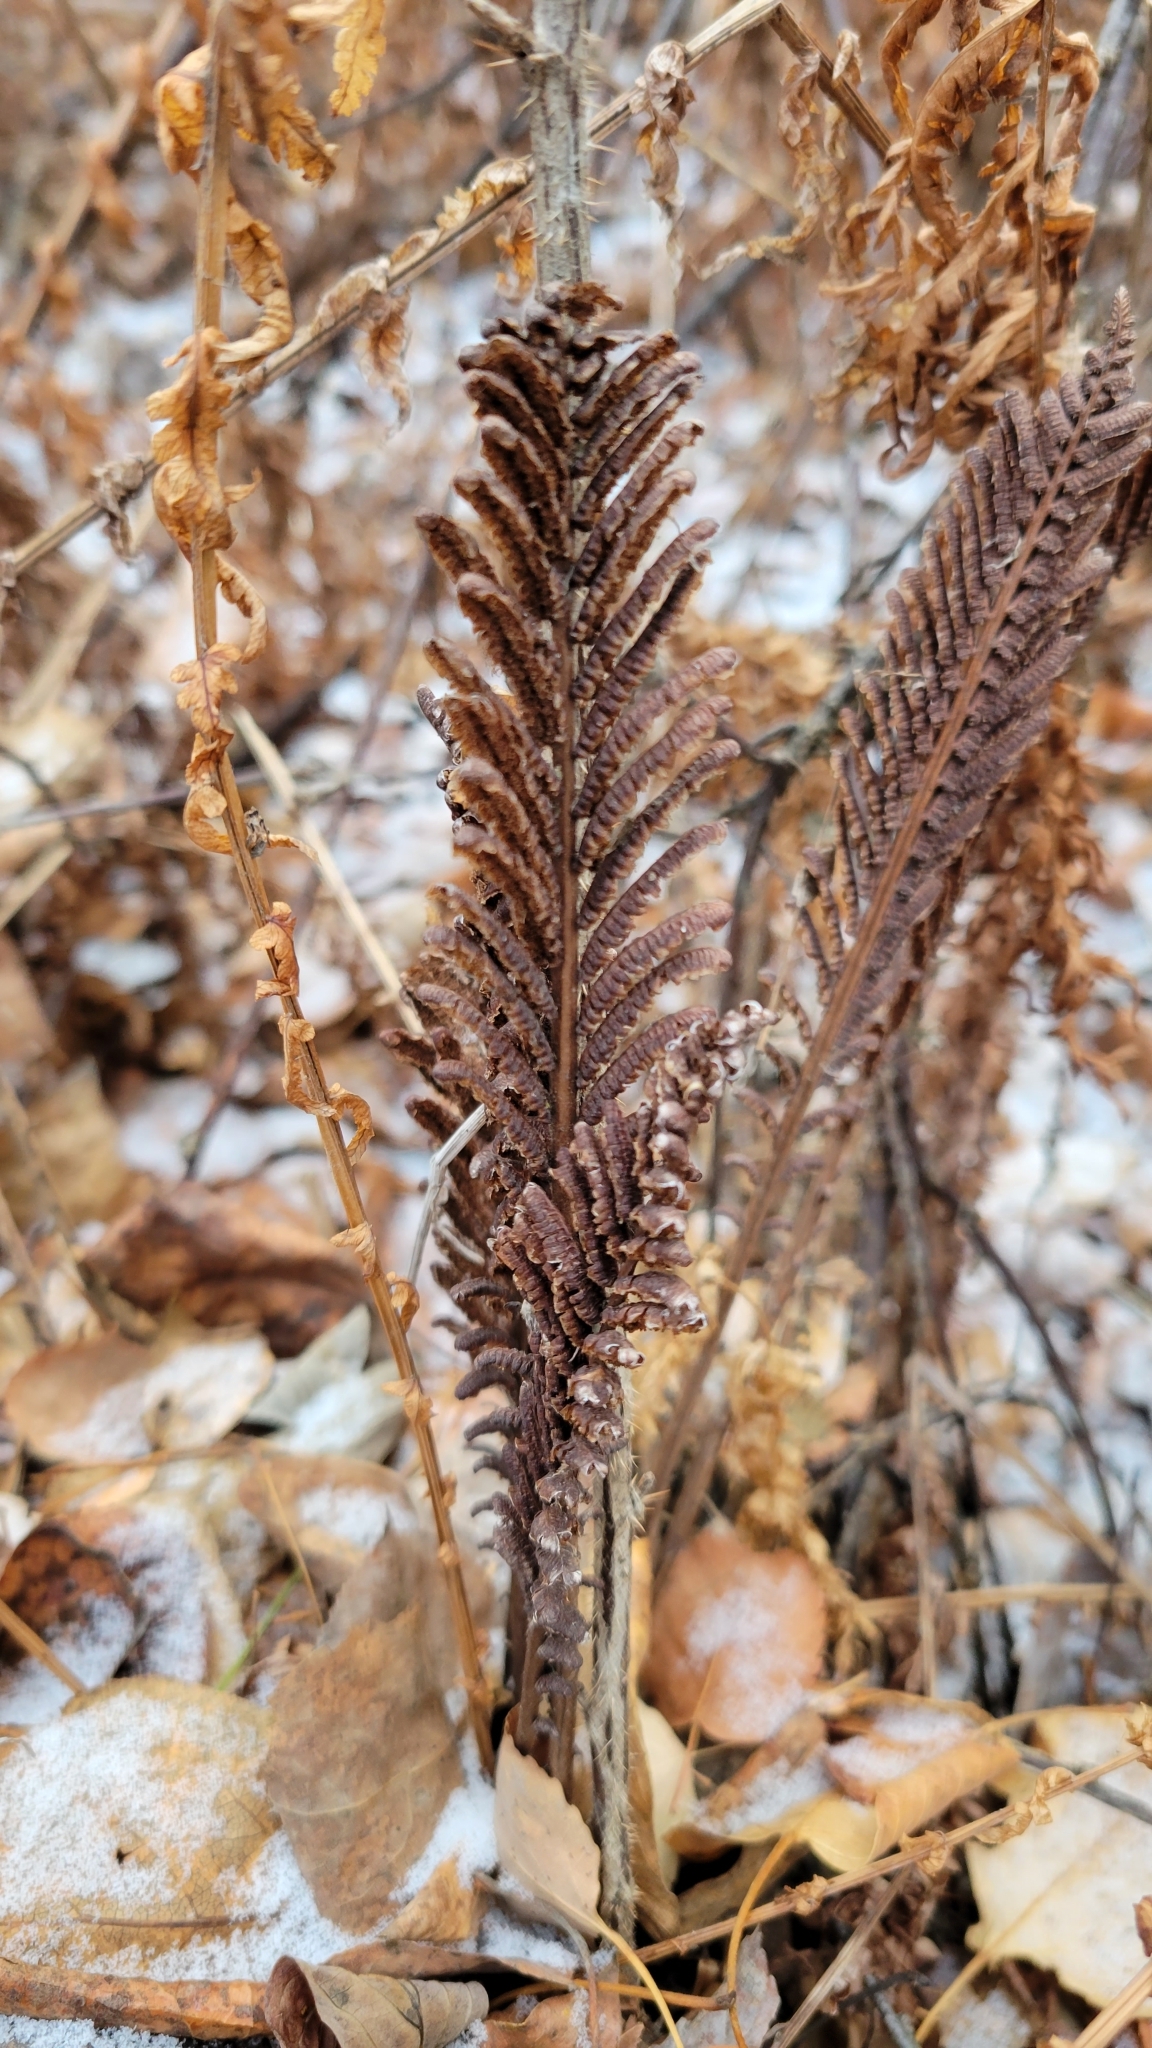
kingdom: Plantae
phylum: Tracheophyta
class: Polypodiopsida
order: Polypodiales
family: Onocleaceae
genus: Matteuccia
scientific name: Matteuccia struthiopteris
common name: Ostrich fern
